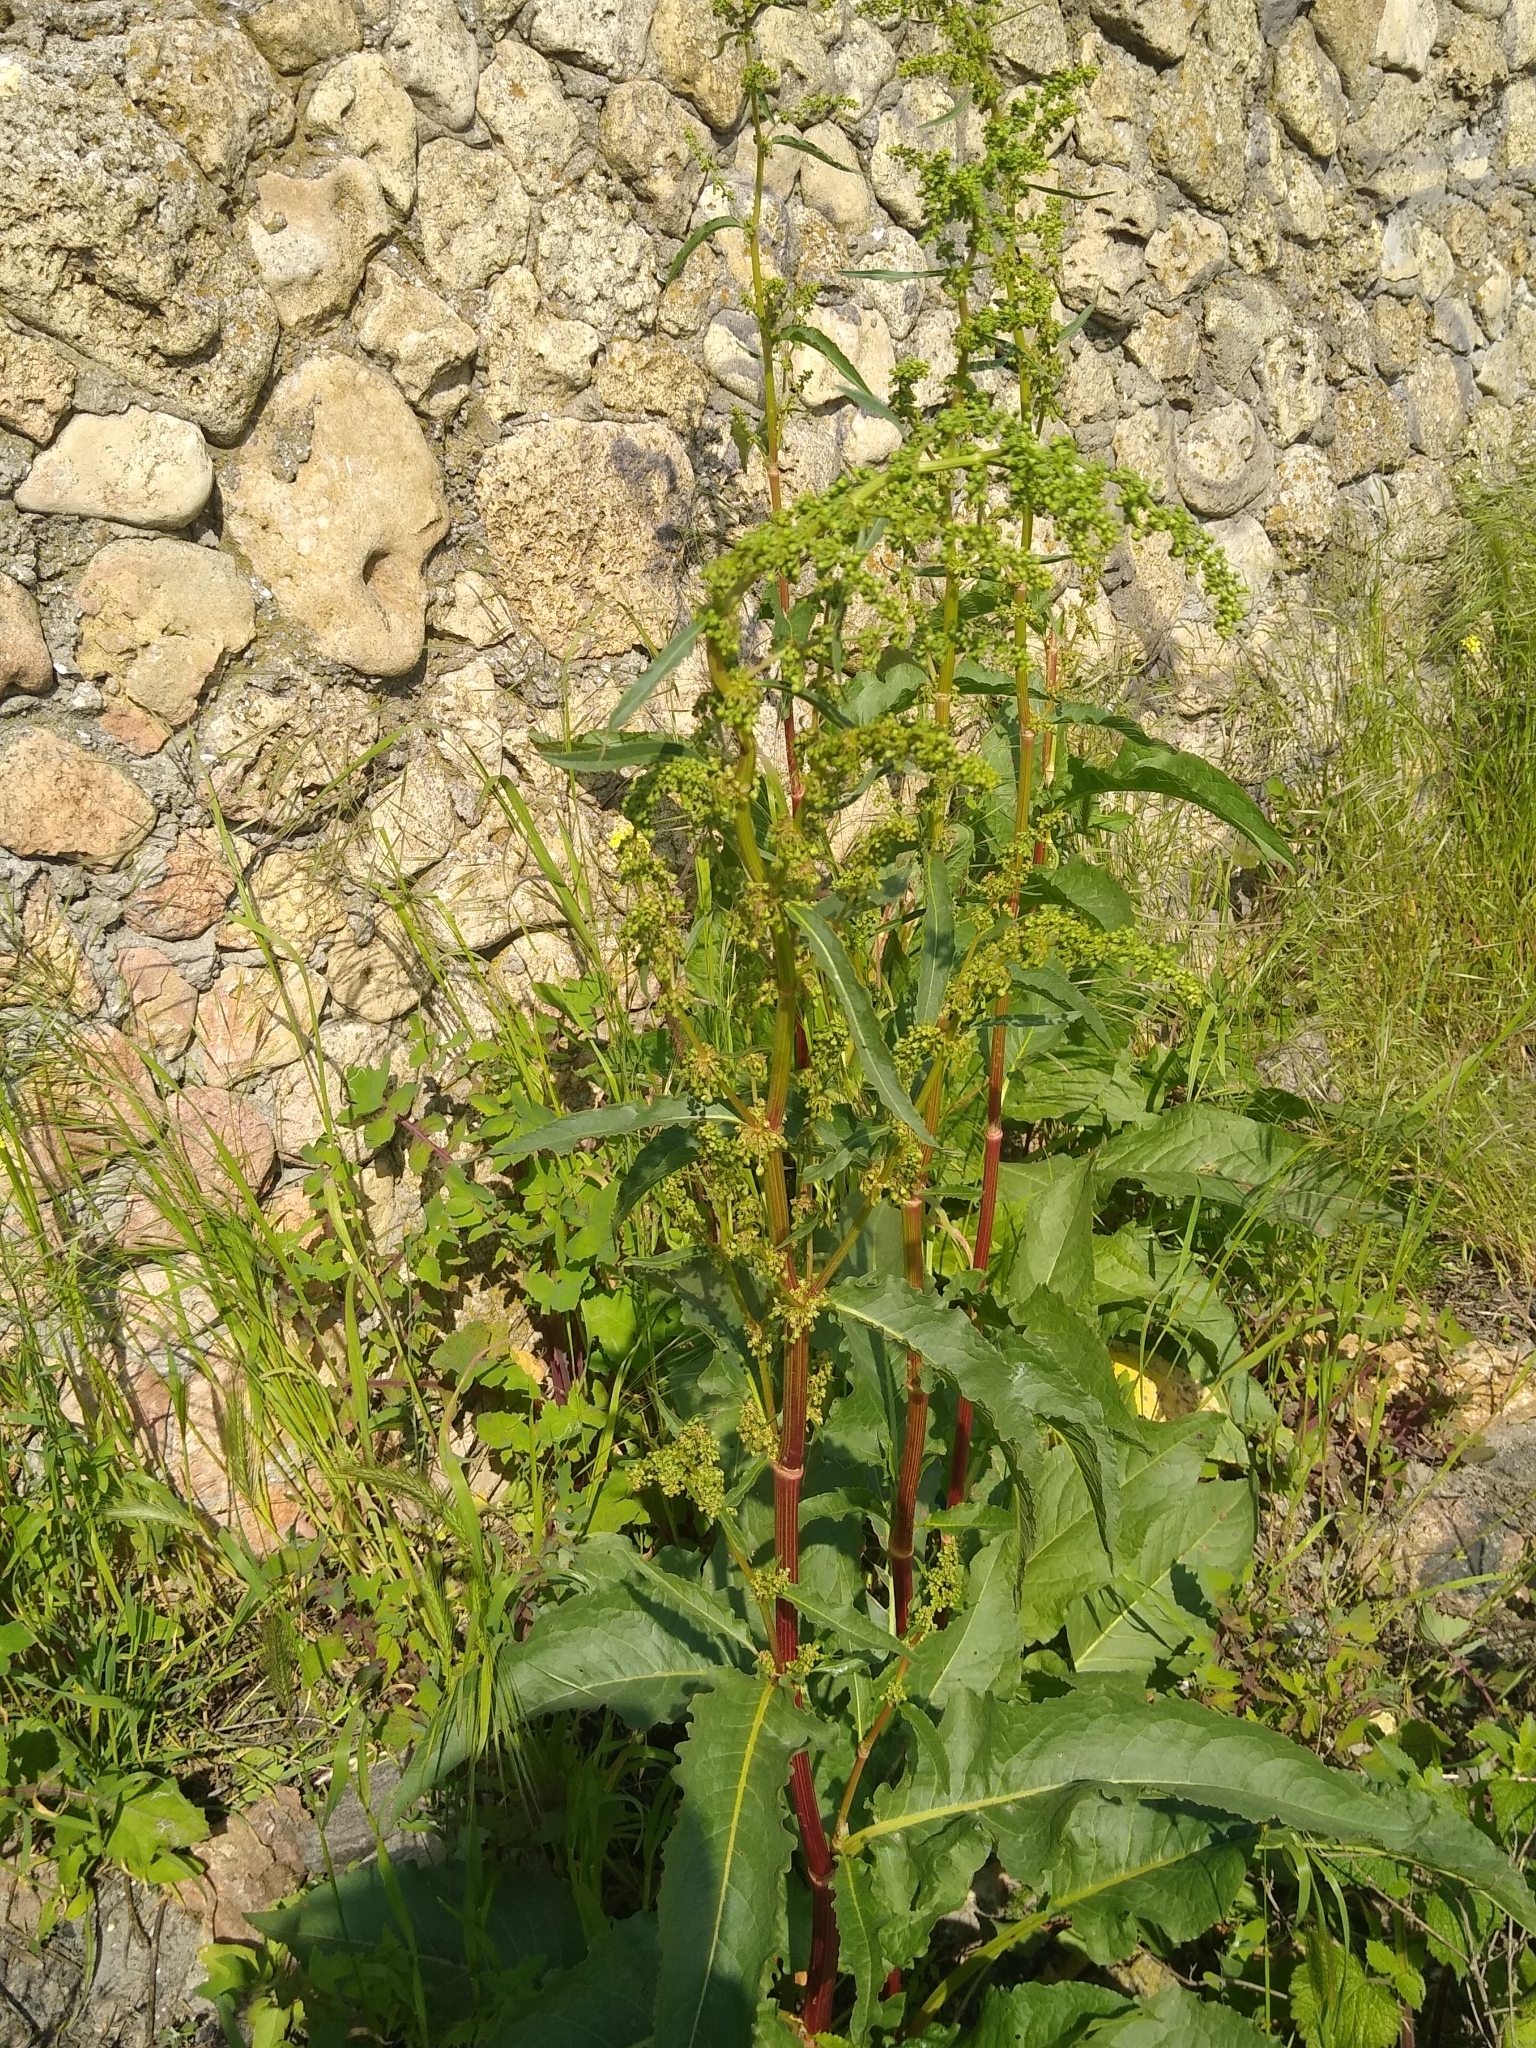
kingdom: Plantae
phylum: Tracheophyta
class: Magnoliopsida
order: Caryophyllales
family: Polygonaceae
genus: Rumex
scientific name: Rumex patientia
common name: Patience dock
